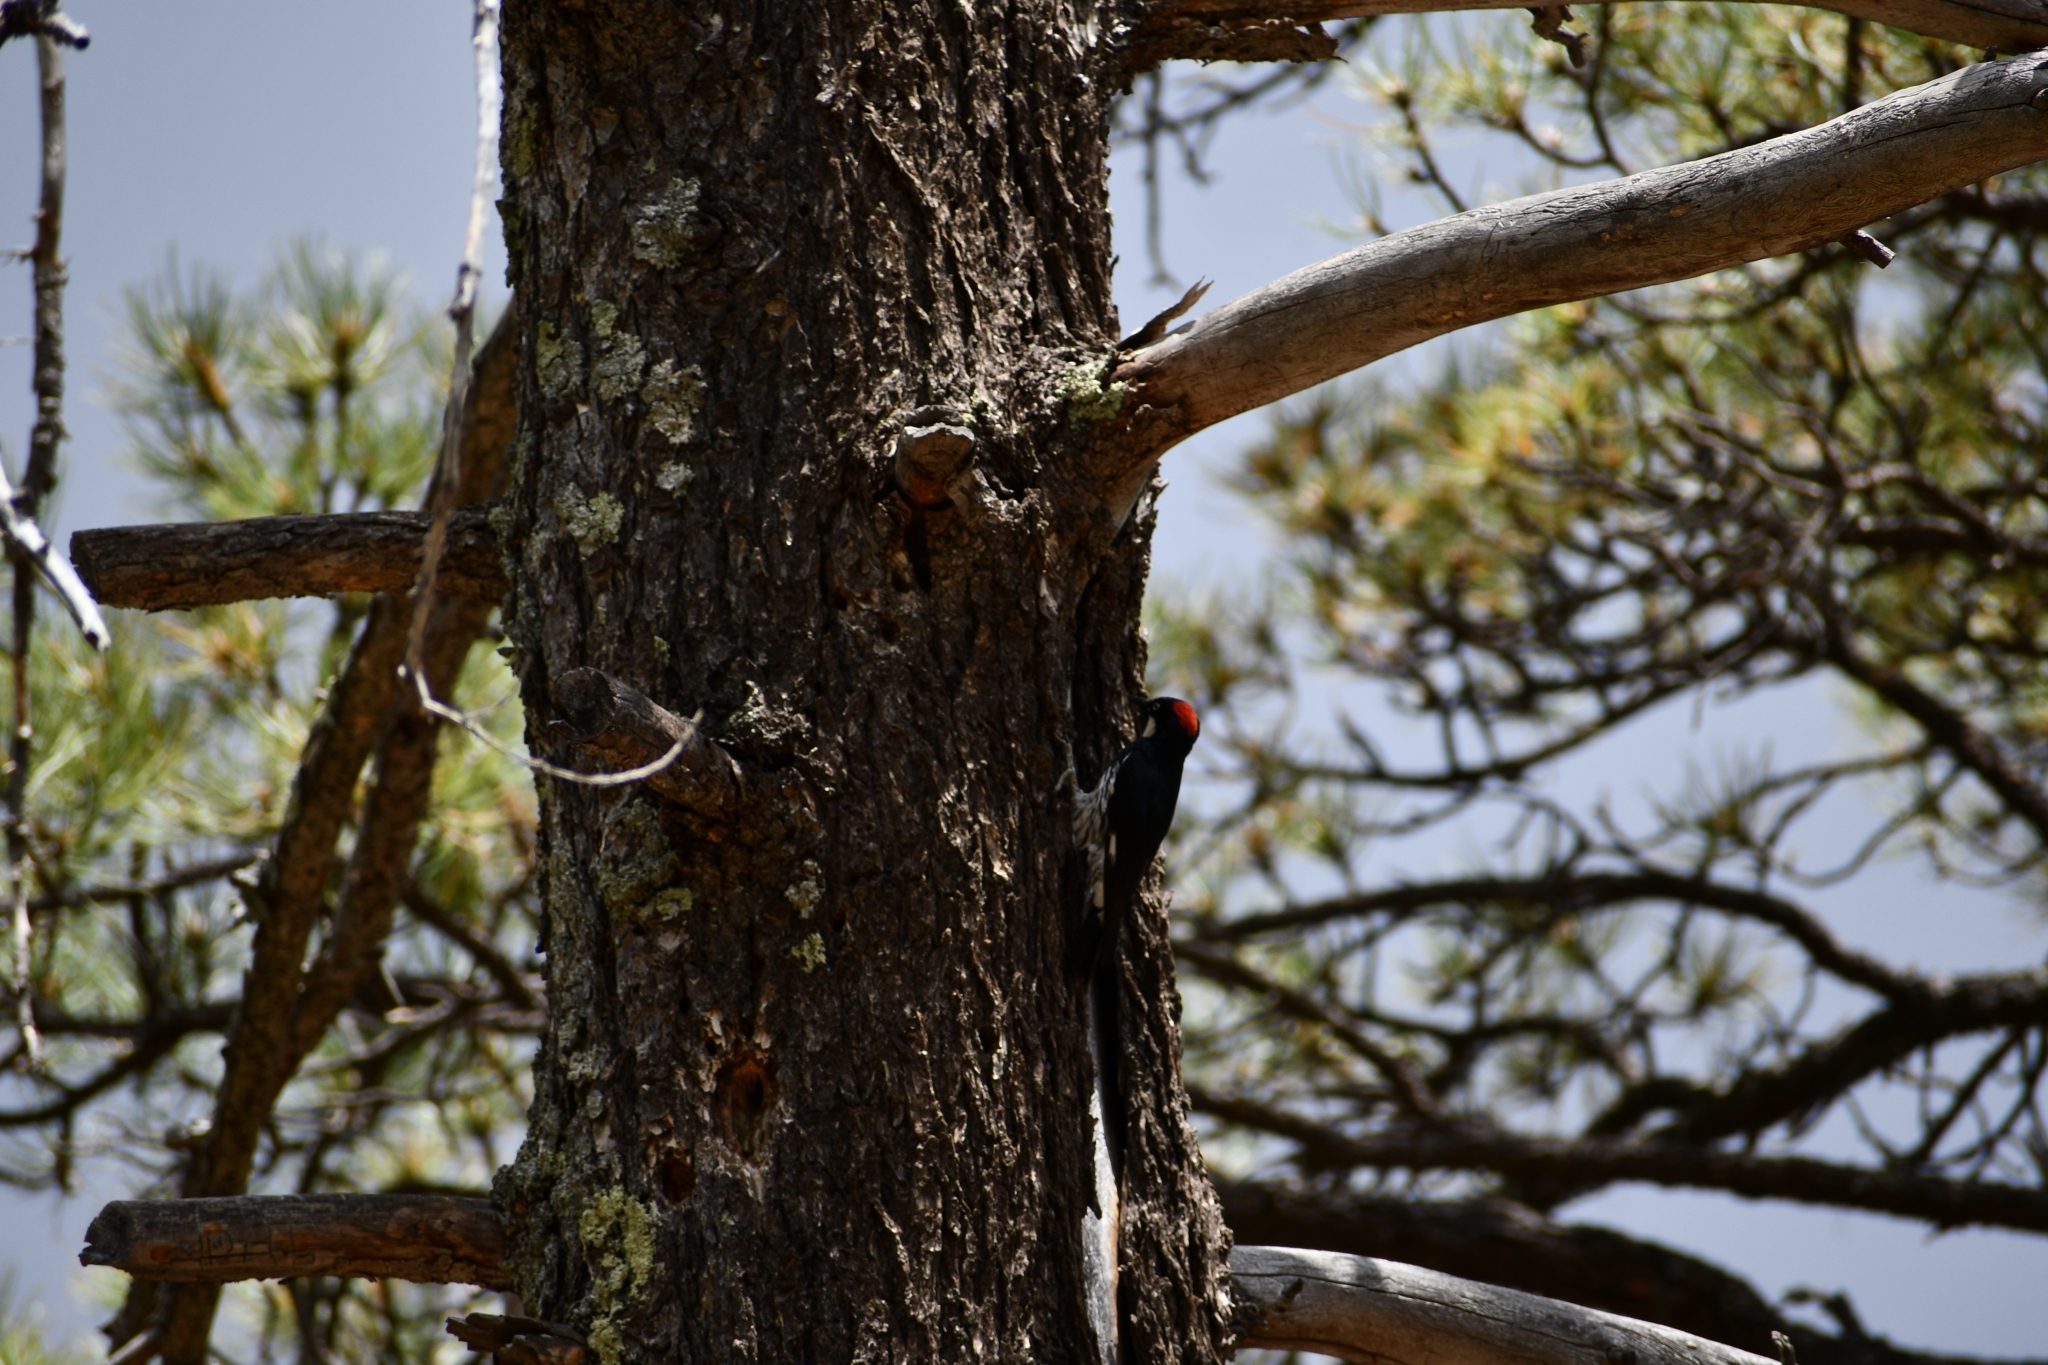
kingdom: Animalia
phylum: Chordata
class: Aves
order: Piciformes
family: Picidae
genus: Melanerpes
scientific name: Melanerpes formicivorus
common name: Acorn woodpecker
